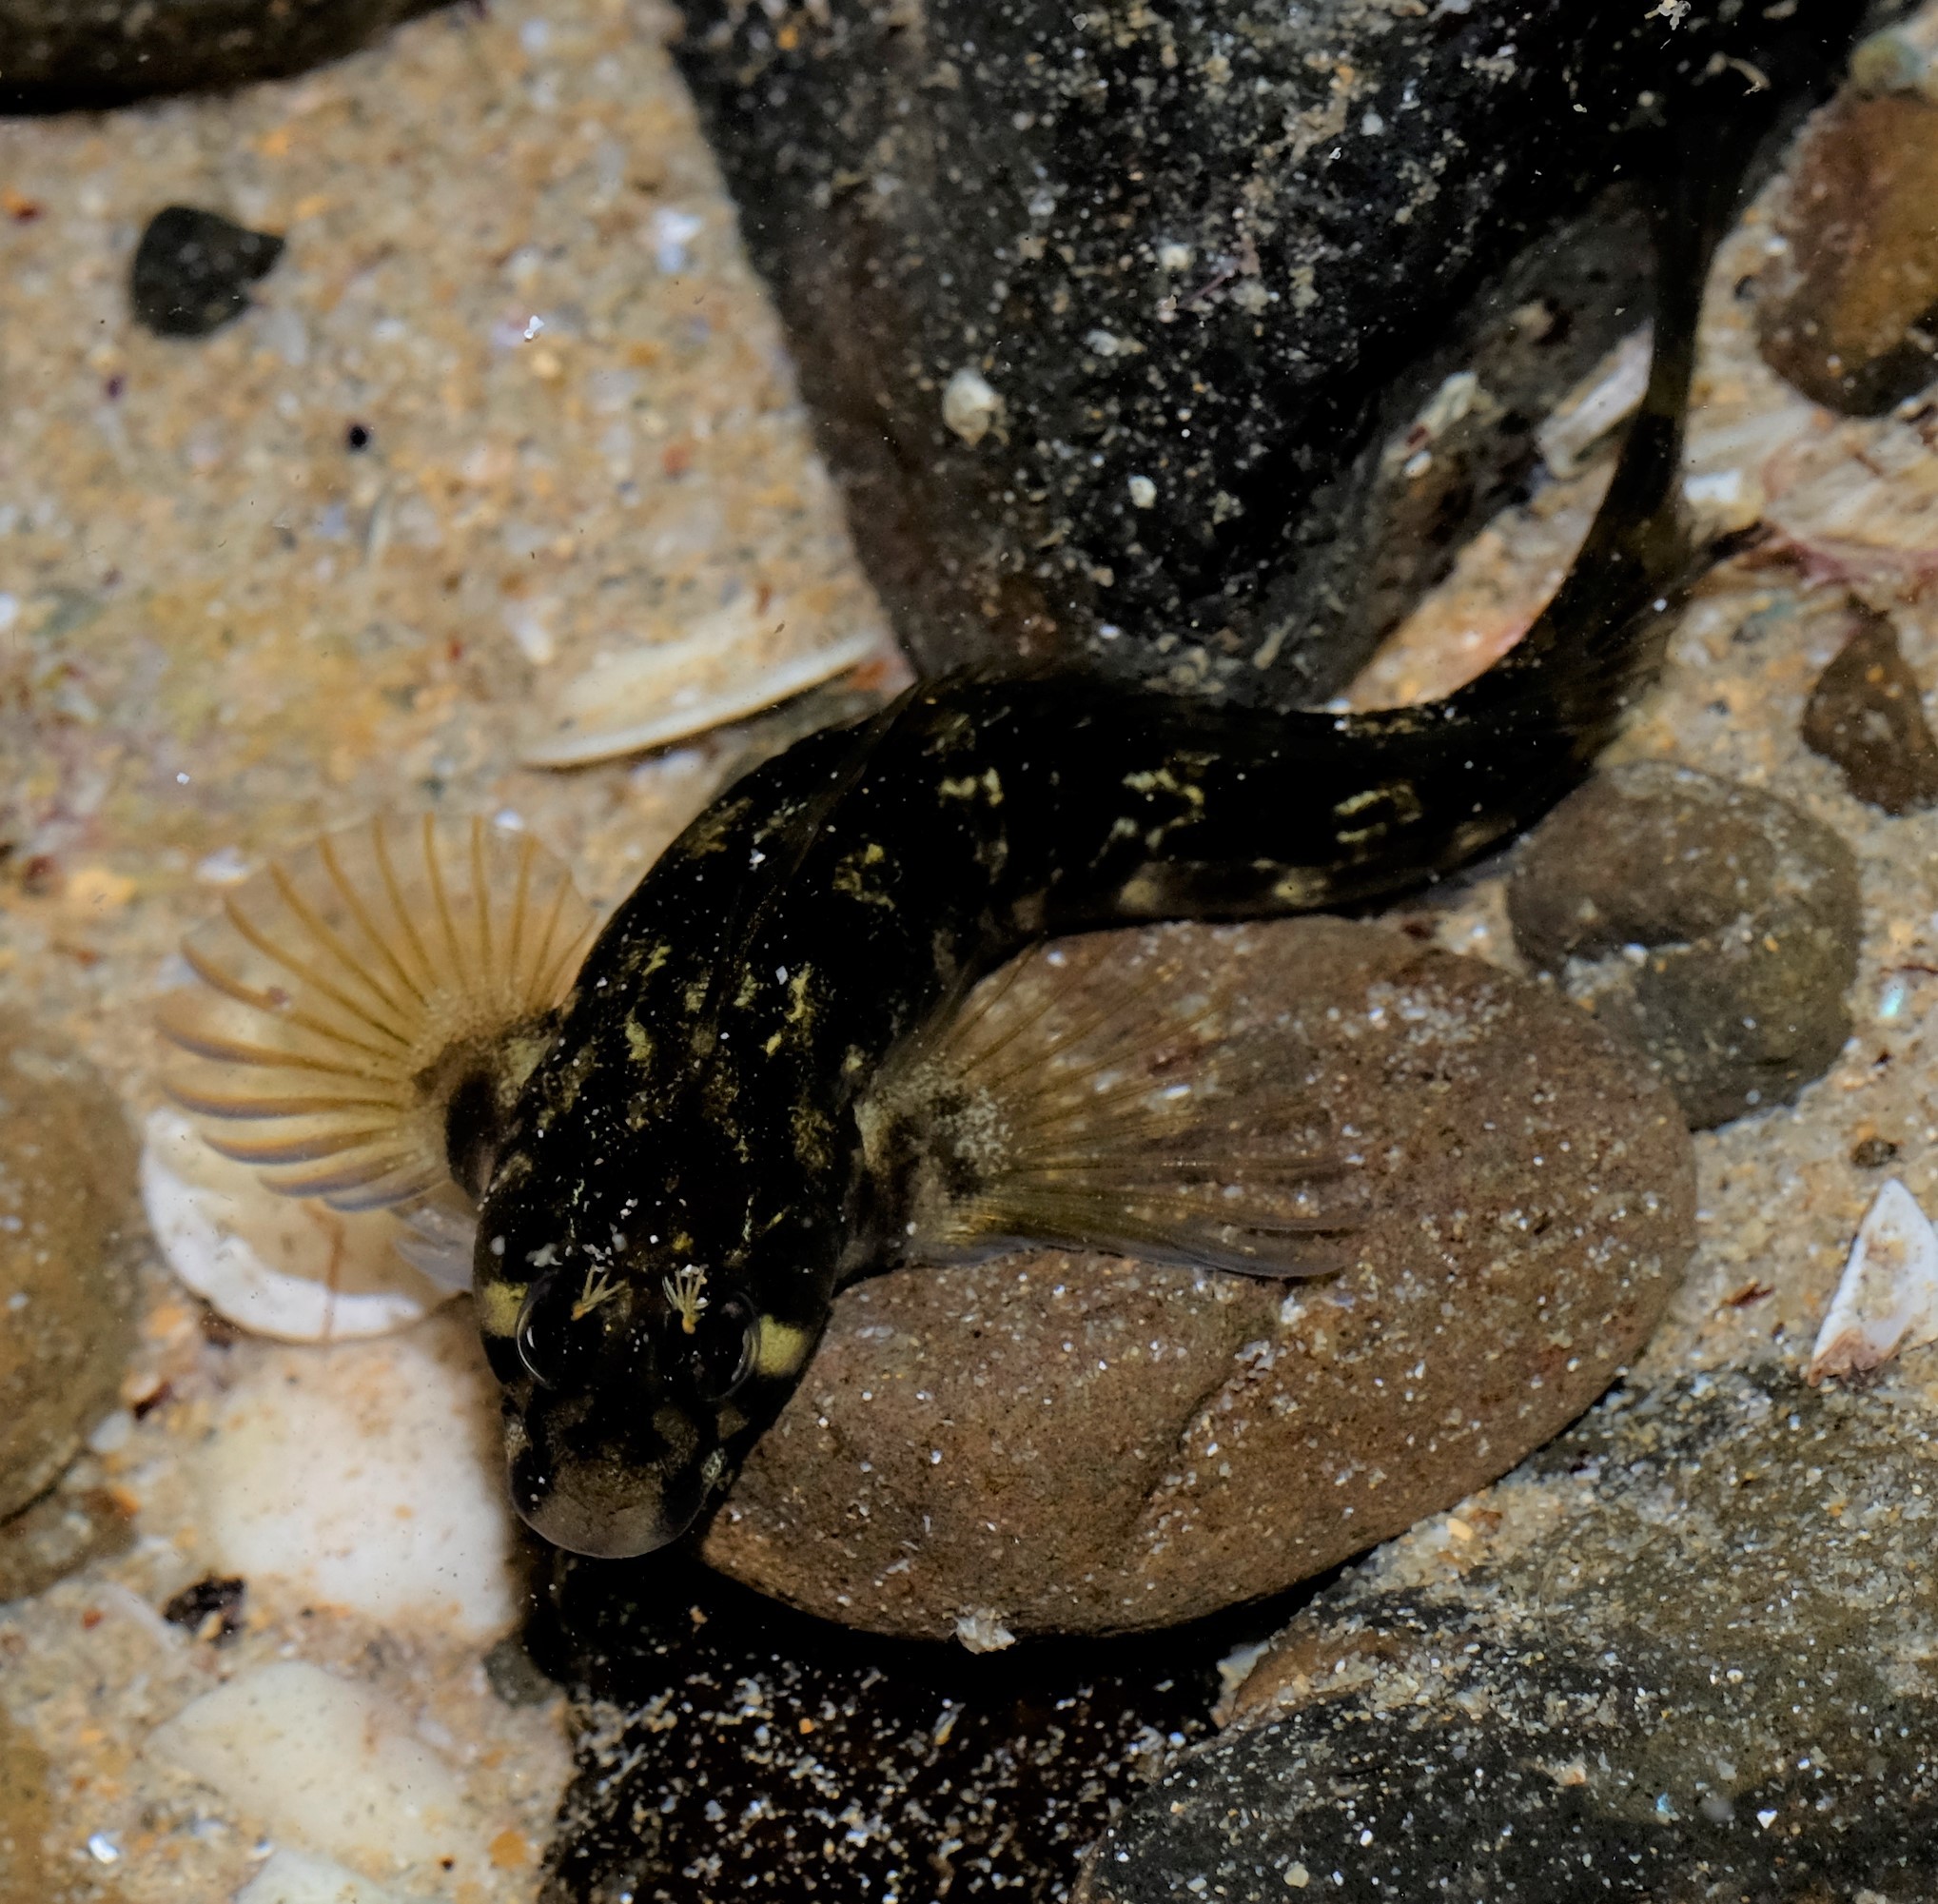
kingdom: Animalia
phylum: Chordata
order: Perciformes
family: Blenniidae
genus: Parablennius
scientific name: Parablennius tasmanianus
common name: Tasmanian blenny
